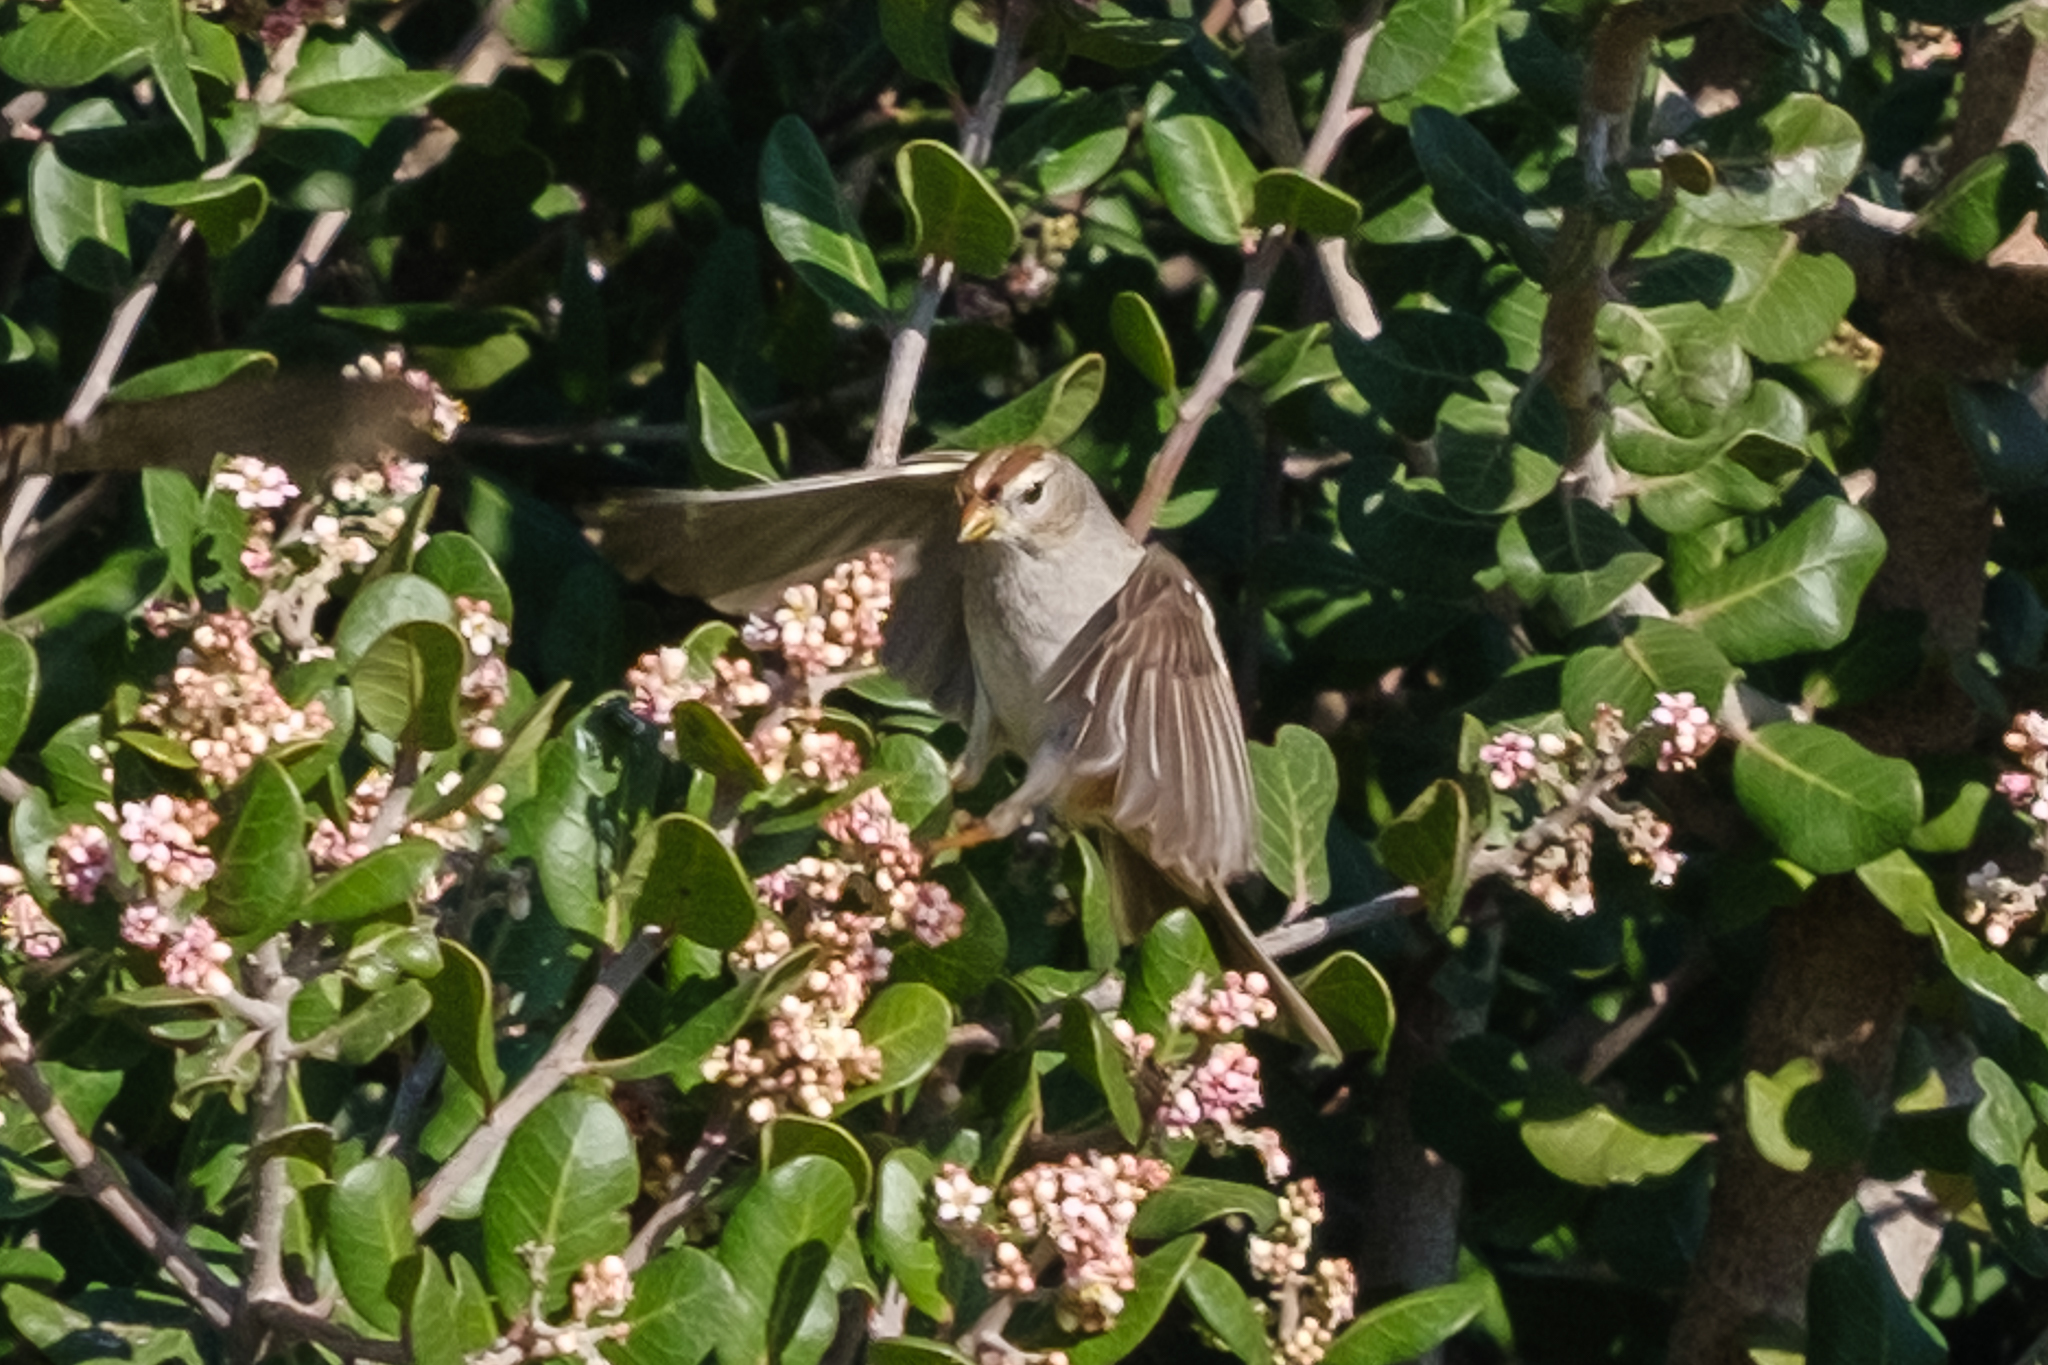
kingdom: Animalia
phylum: Chordata
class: Aves
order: Passeriformes
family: Passerellidae
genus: Zonotrichia
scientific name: Zonotrichia leucophrys
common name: White-crowned sparrow
